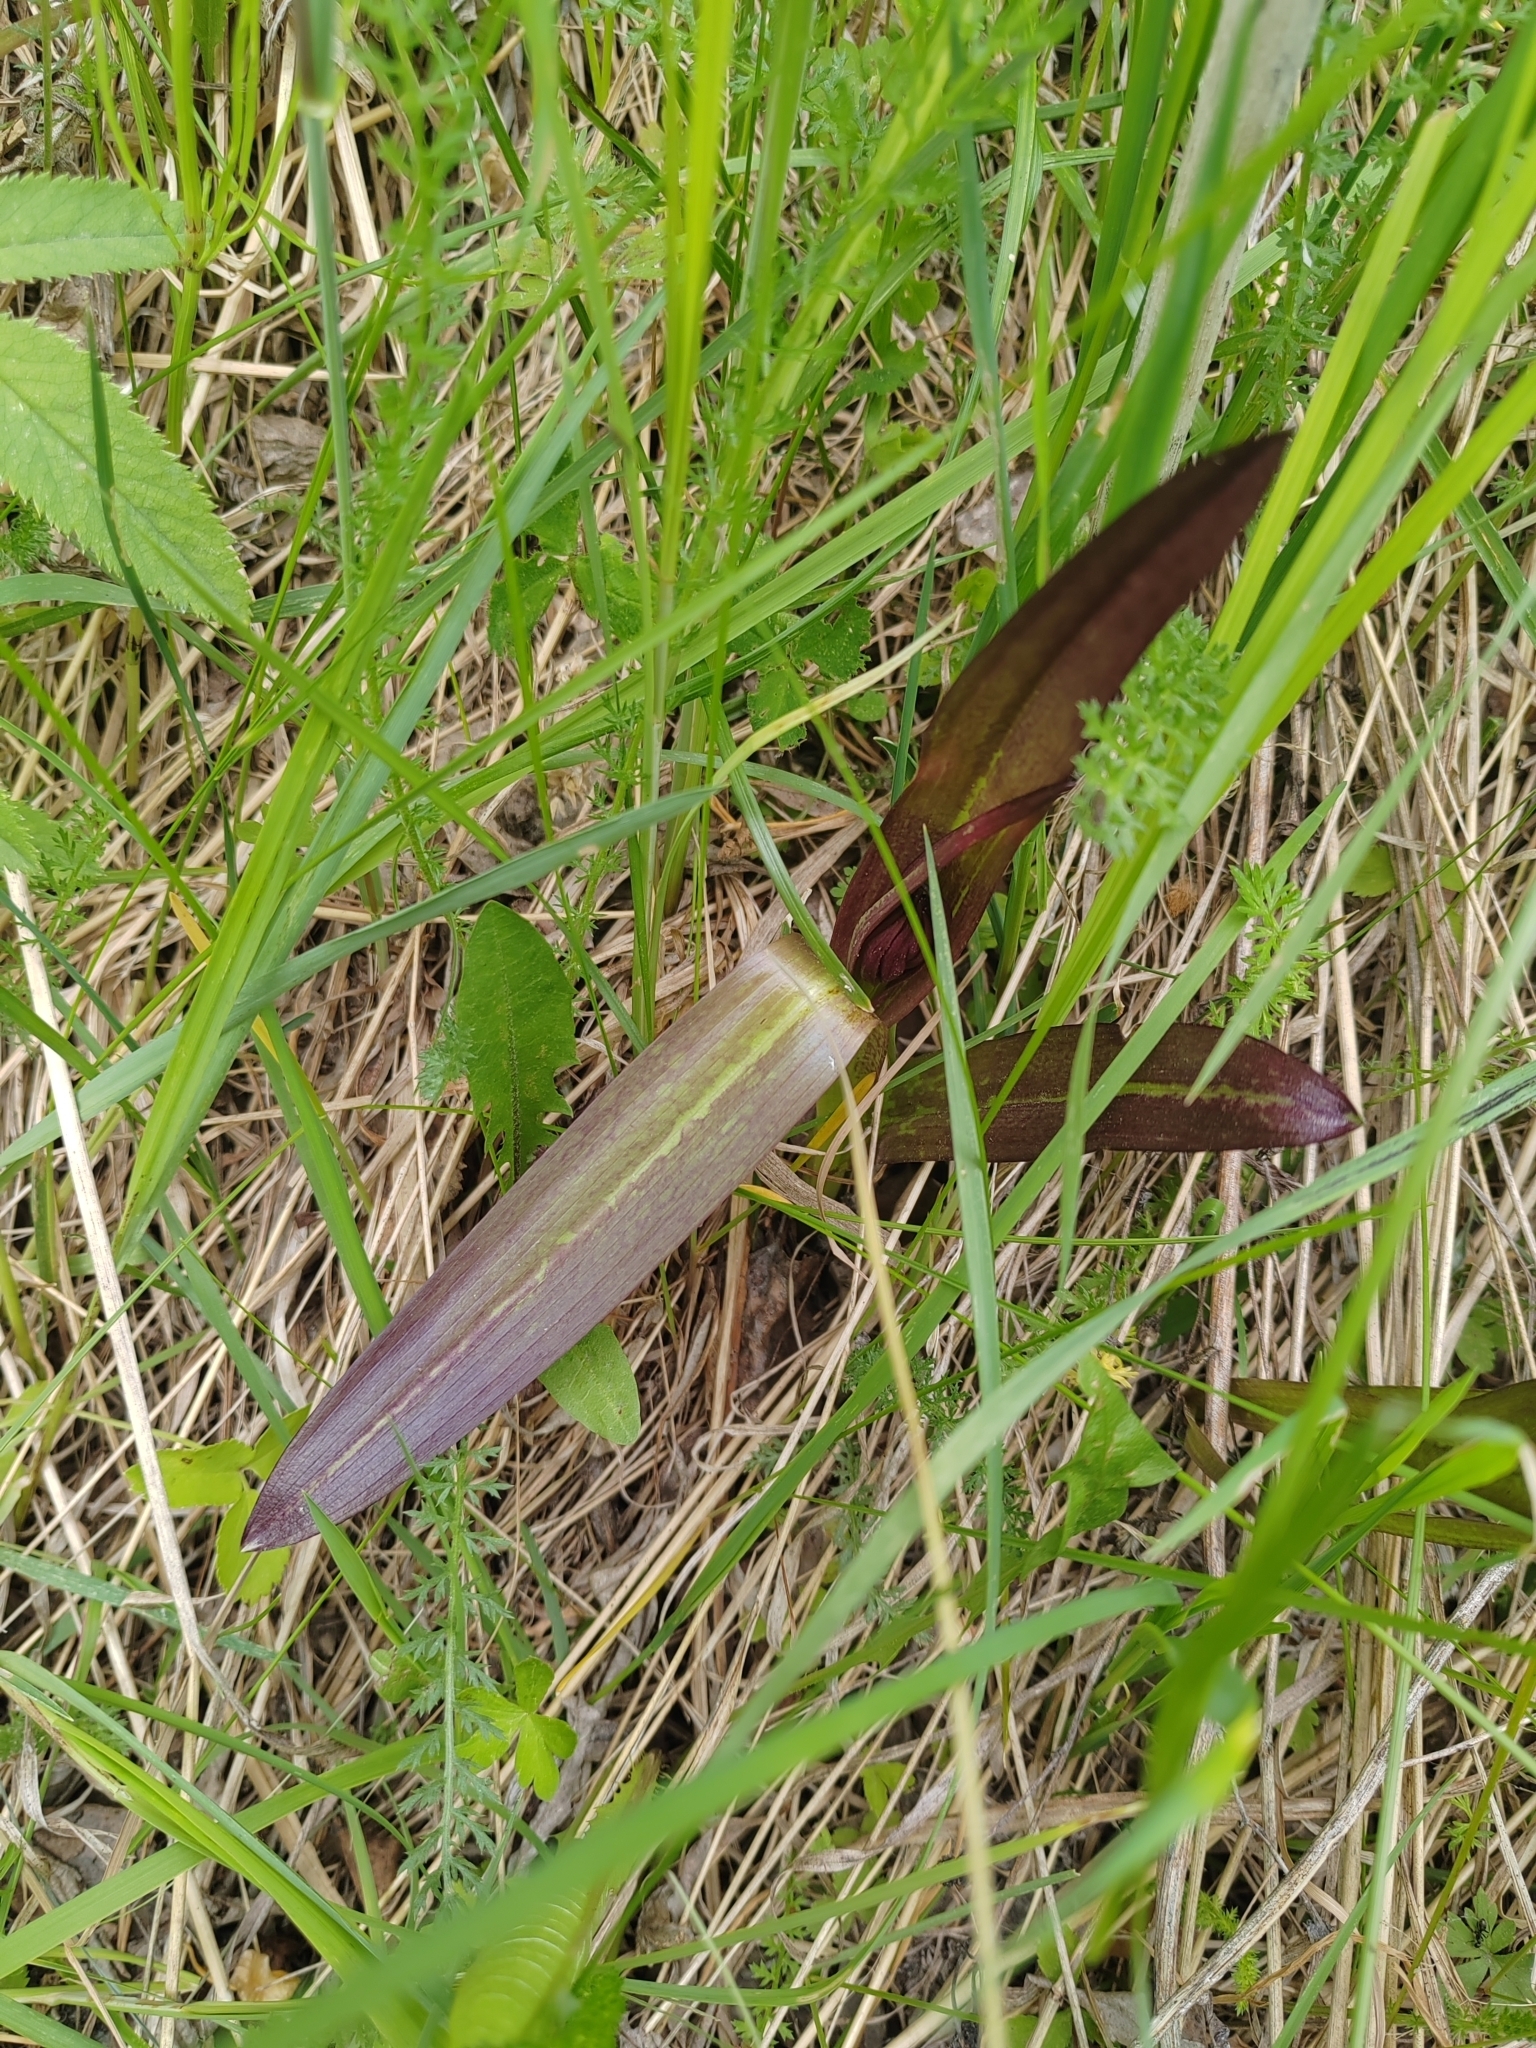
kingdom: Plantae
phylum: Tracheophyta
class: Liliopsida
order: Asparagales
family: Orchidaceae
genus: Dactylorhiza
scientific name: Dactylorhiza incarnata
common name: Early marsh-orchid
